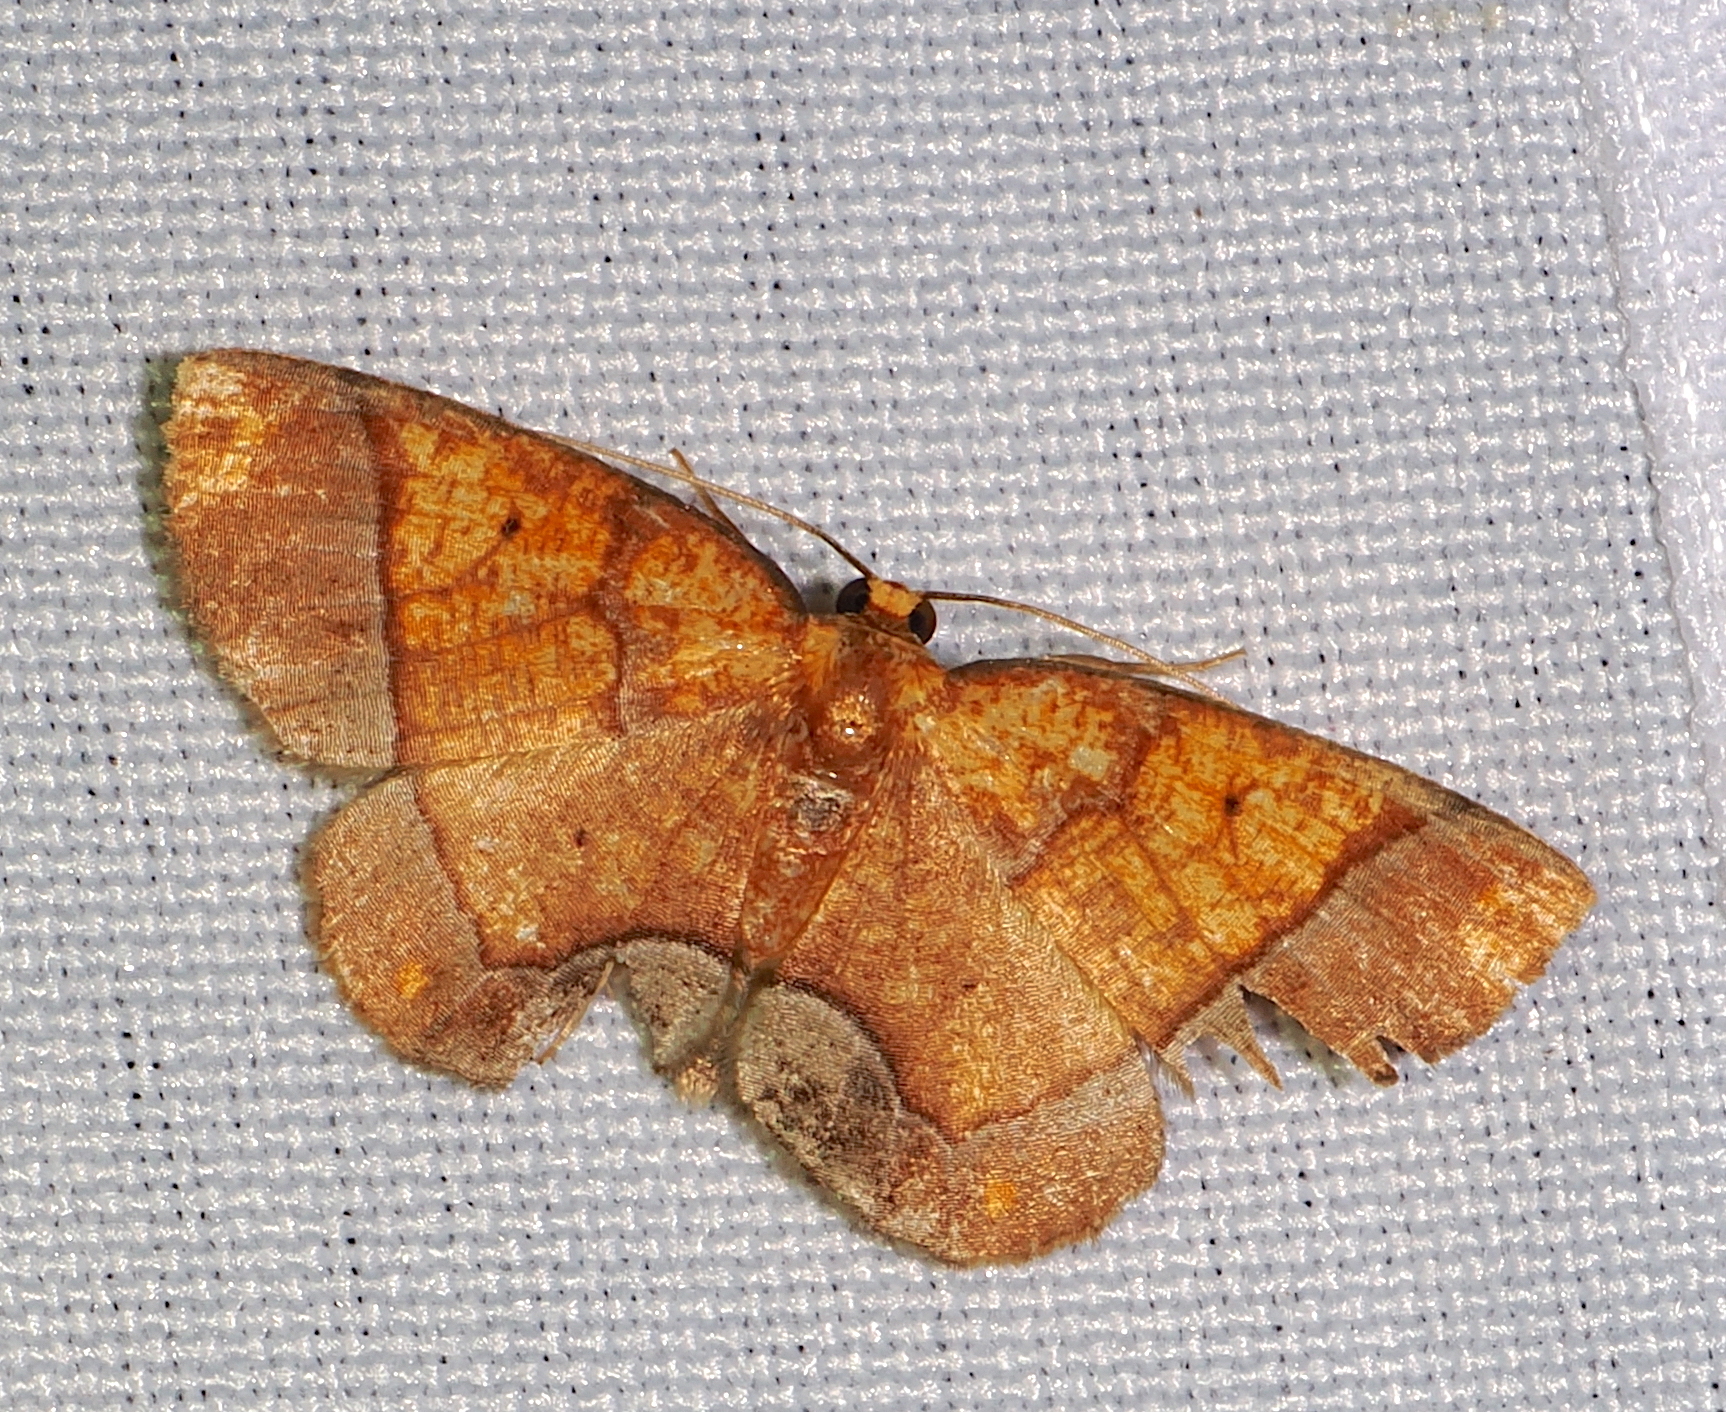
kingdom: Animalia
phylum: Arthropoda
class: Insecta
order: Lepidoptera
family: Geometridae
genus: Melinoides
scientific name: Melinoides detersaria
